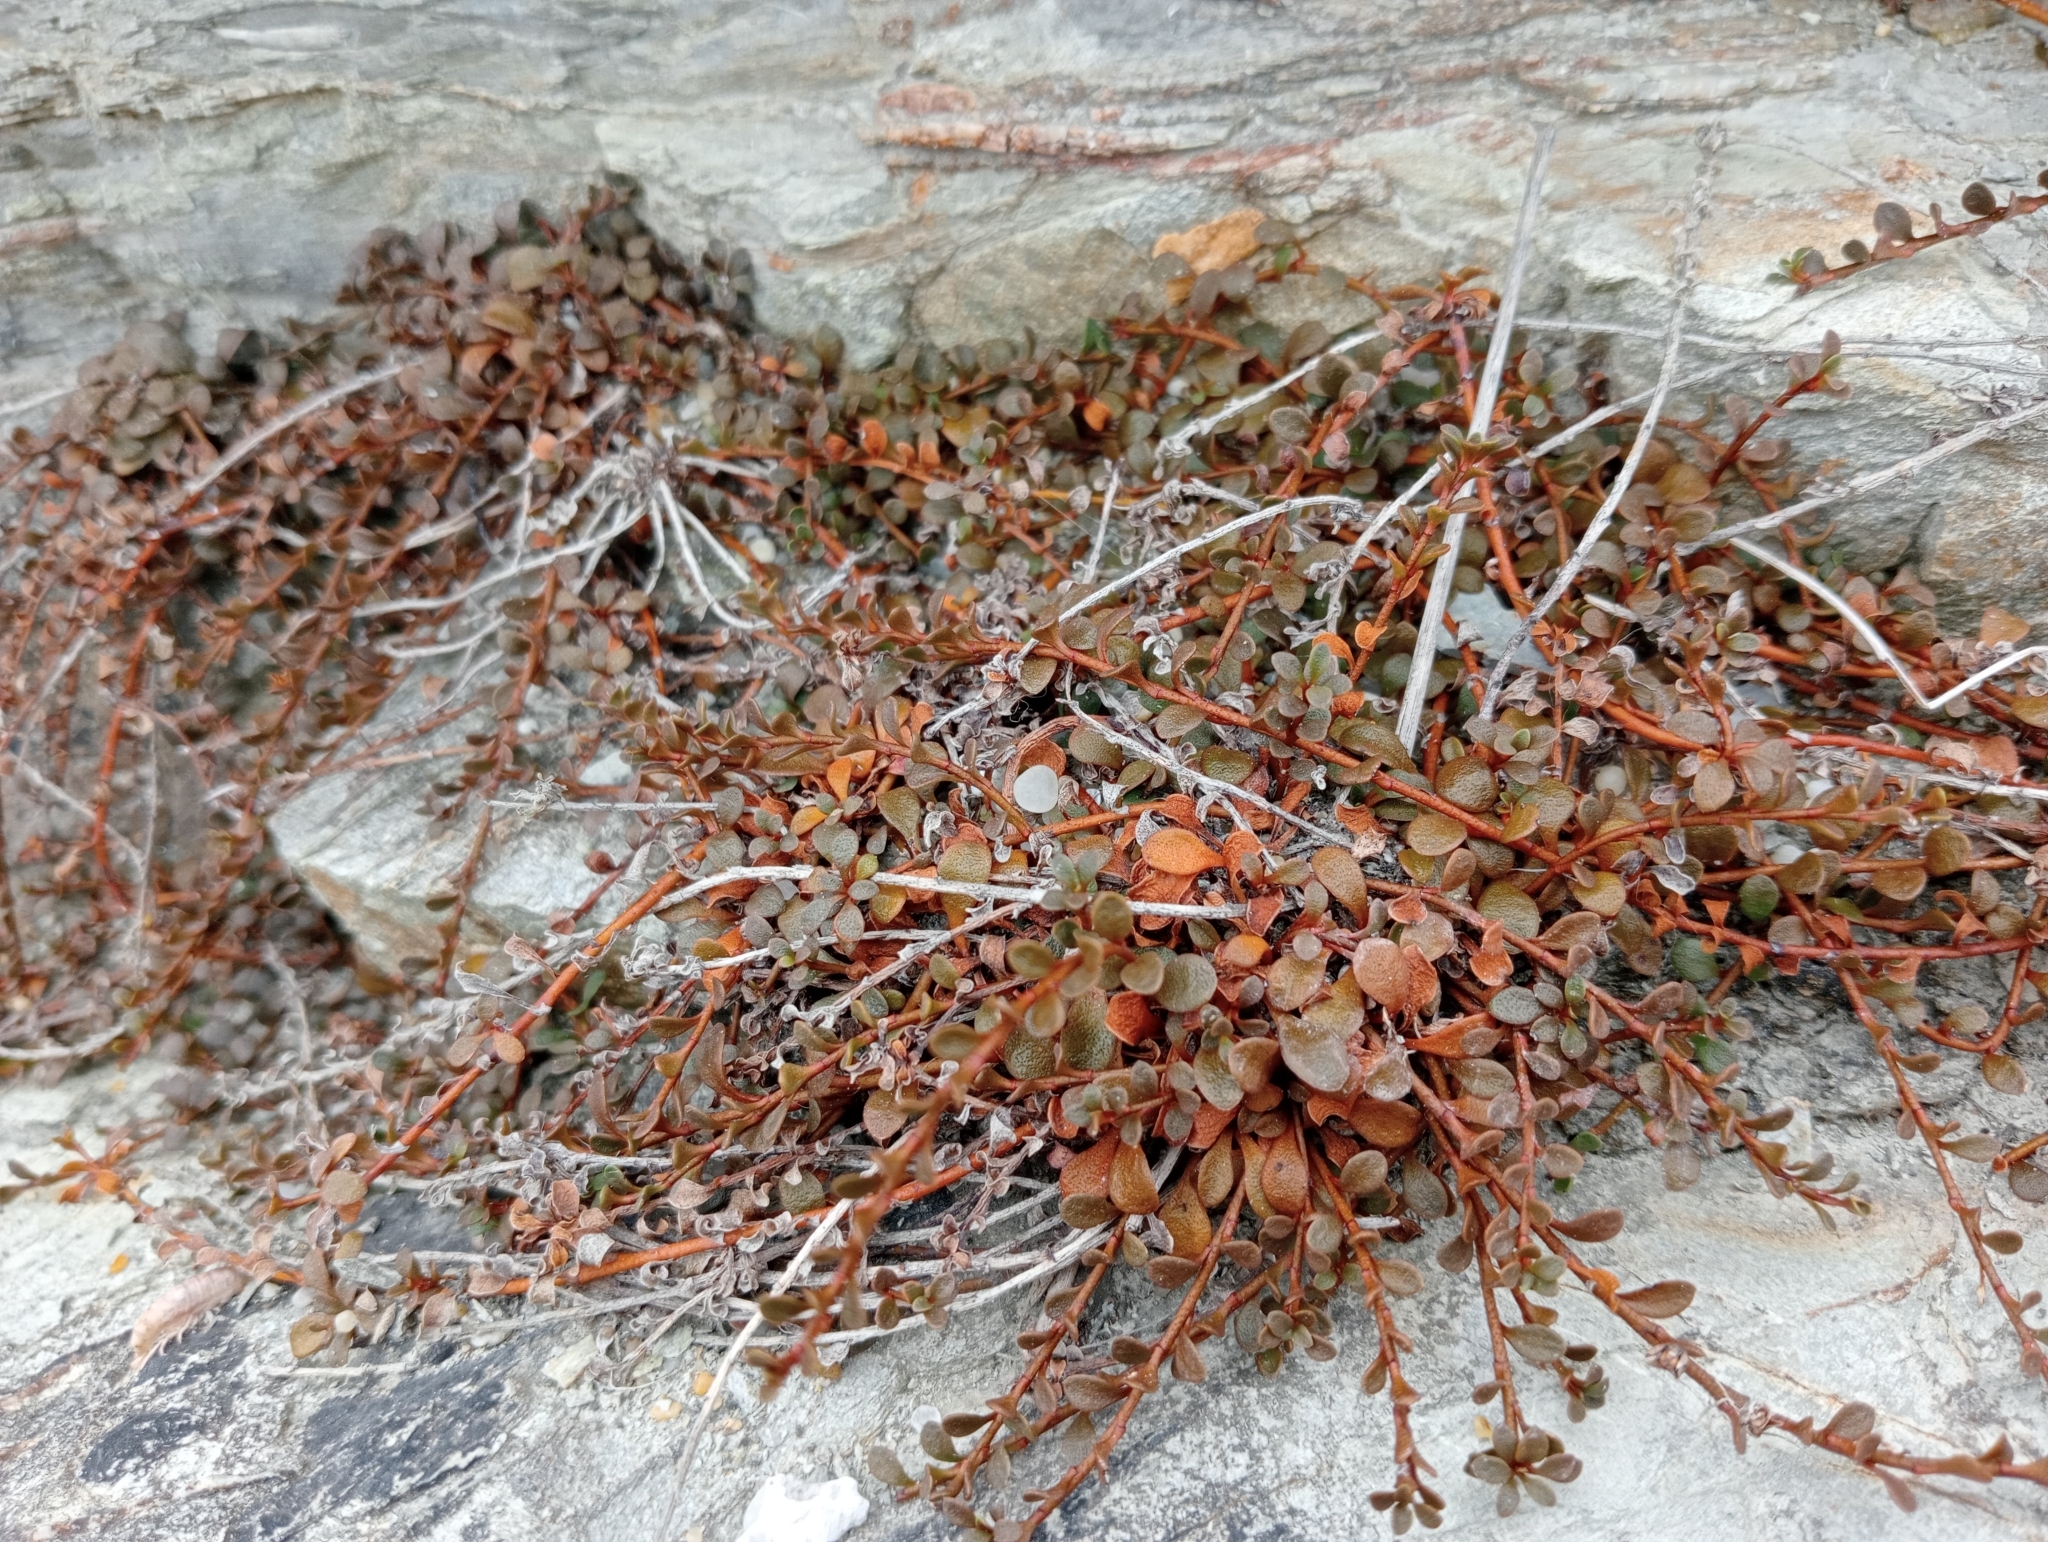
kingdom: Plantae
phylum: Tracheophyta
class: Magnoliopsida
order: Ericales
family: Primulaceae
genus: Samolus
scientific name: Samolus repens
